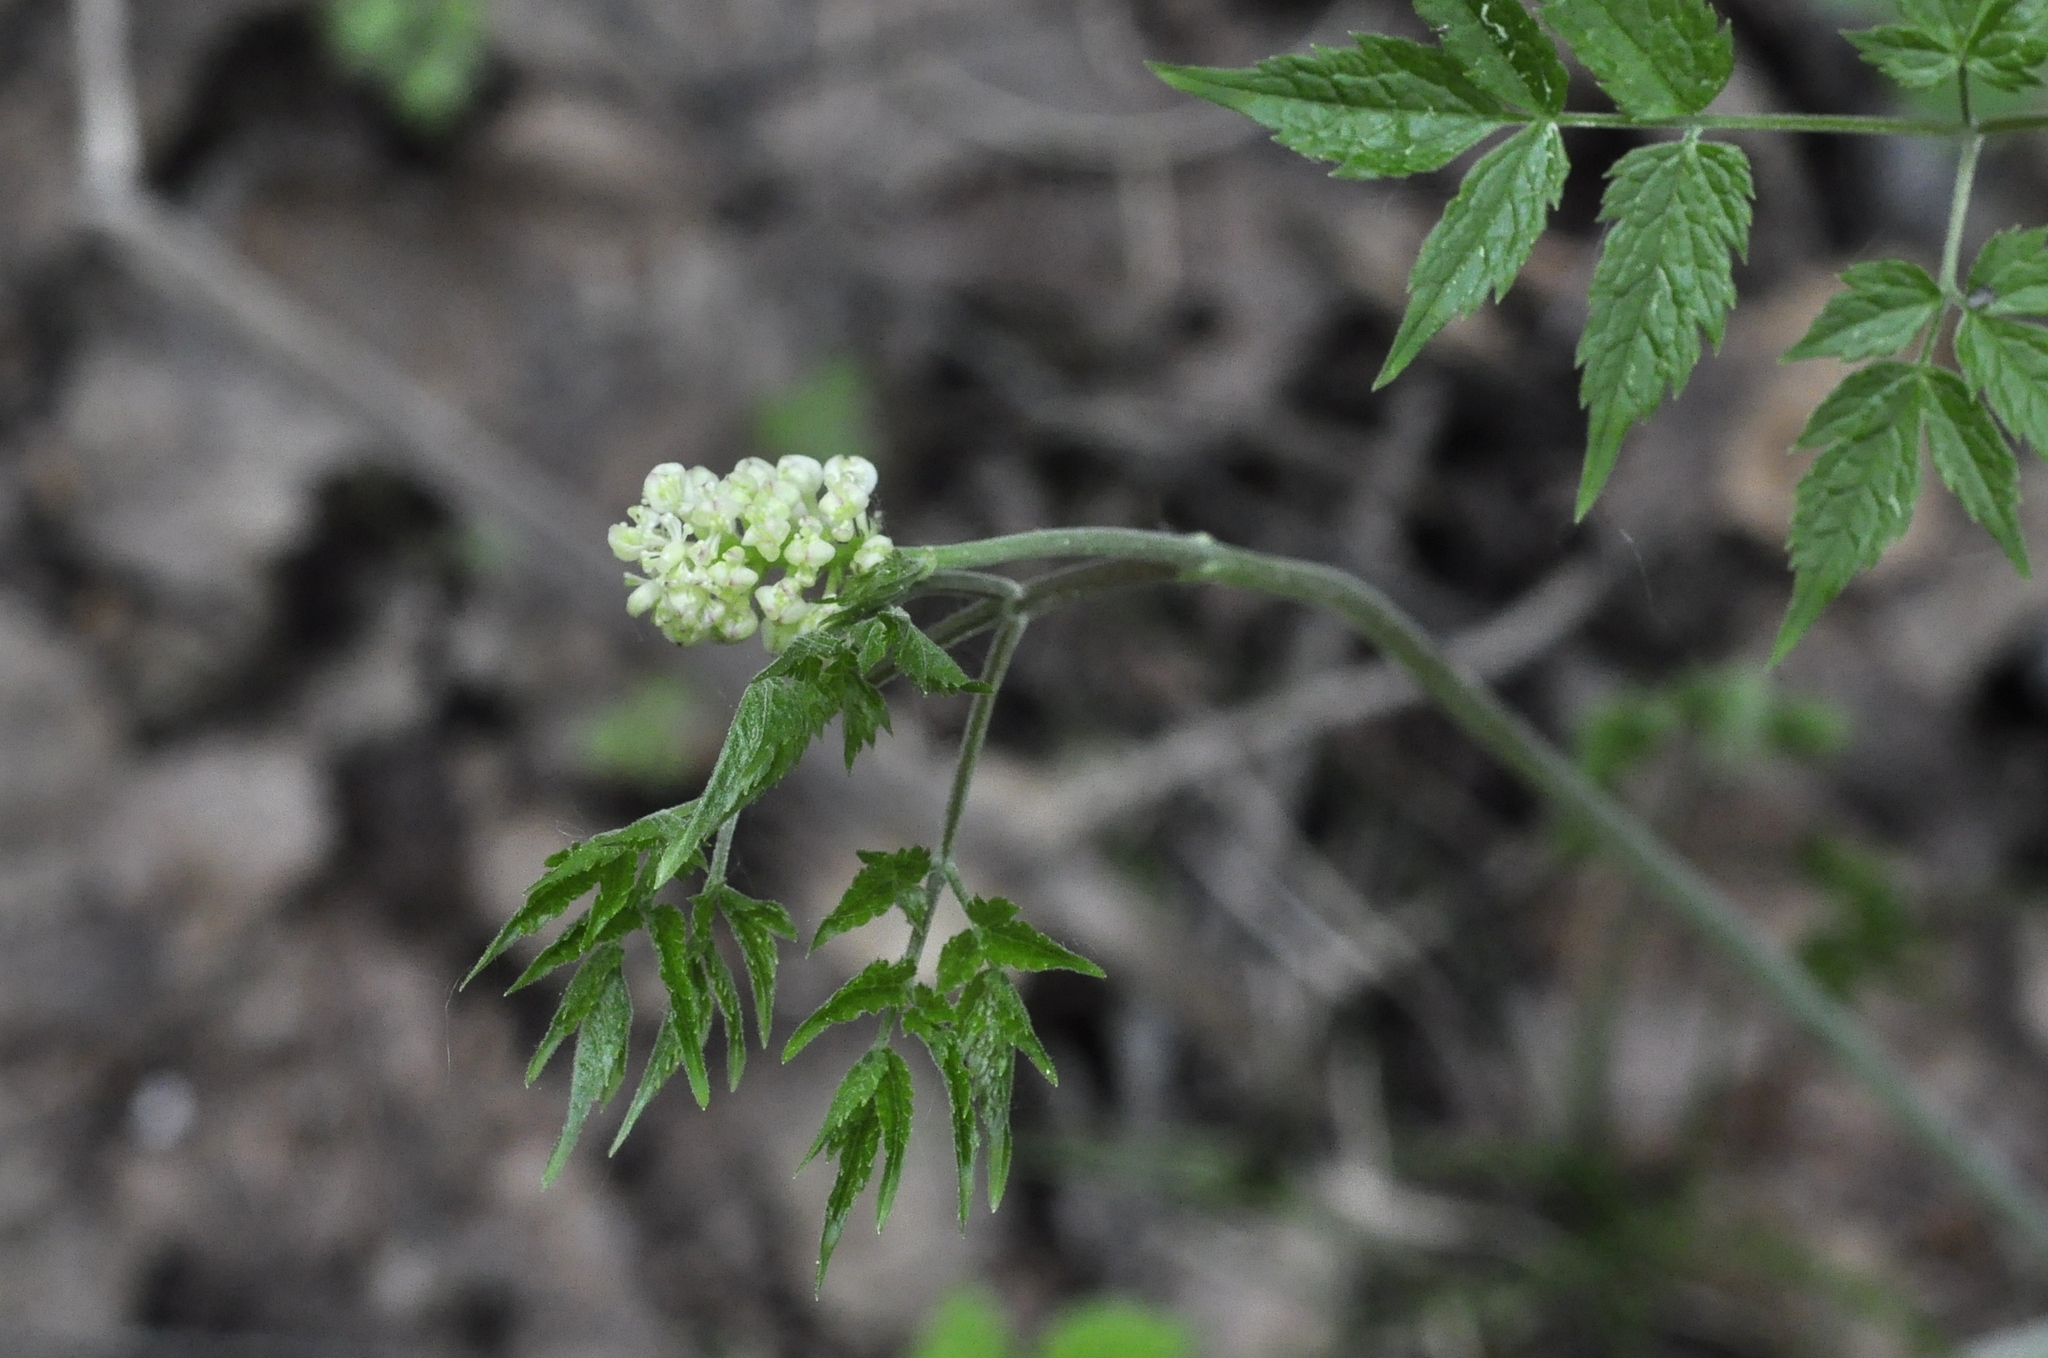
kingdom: Plantae
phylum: Tracheophyta
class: Magnoliopsida
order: Ranunculales
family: Ranunculaceae
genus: Actaea
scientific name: Actaea erythrocarpa
